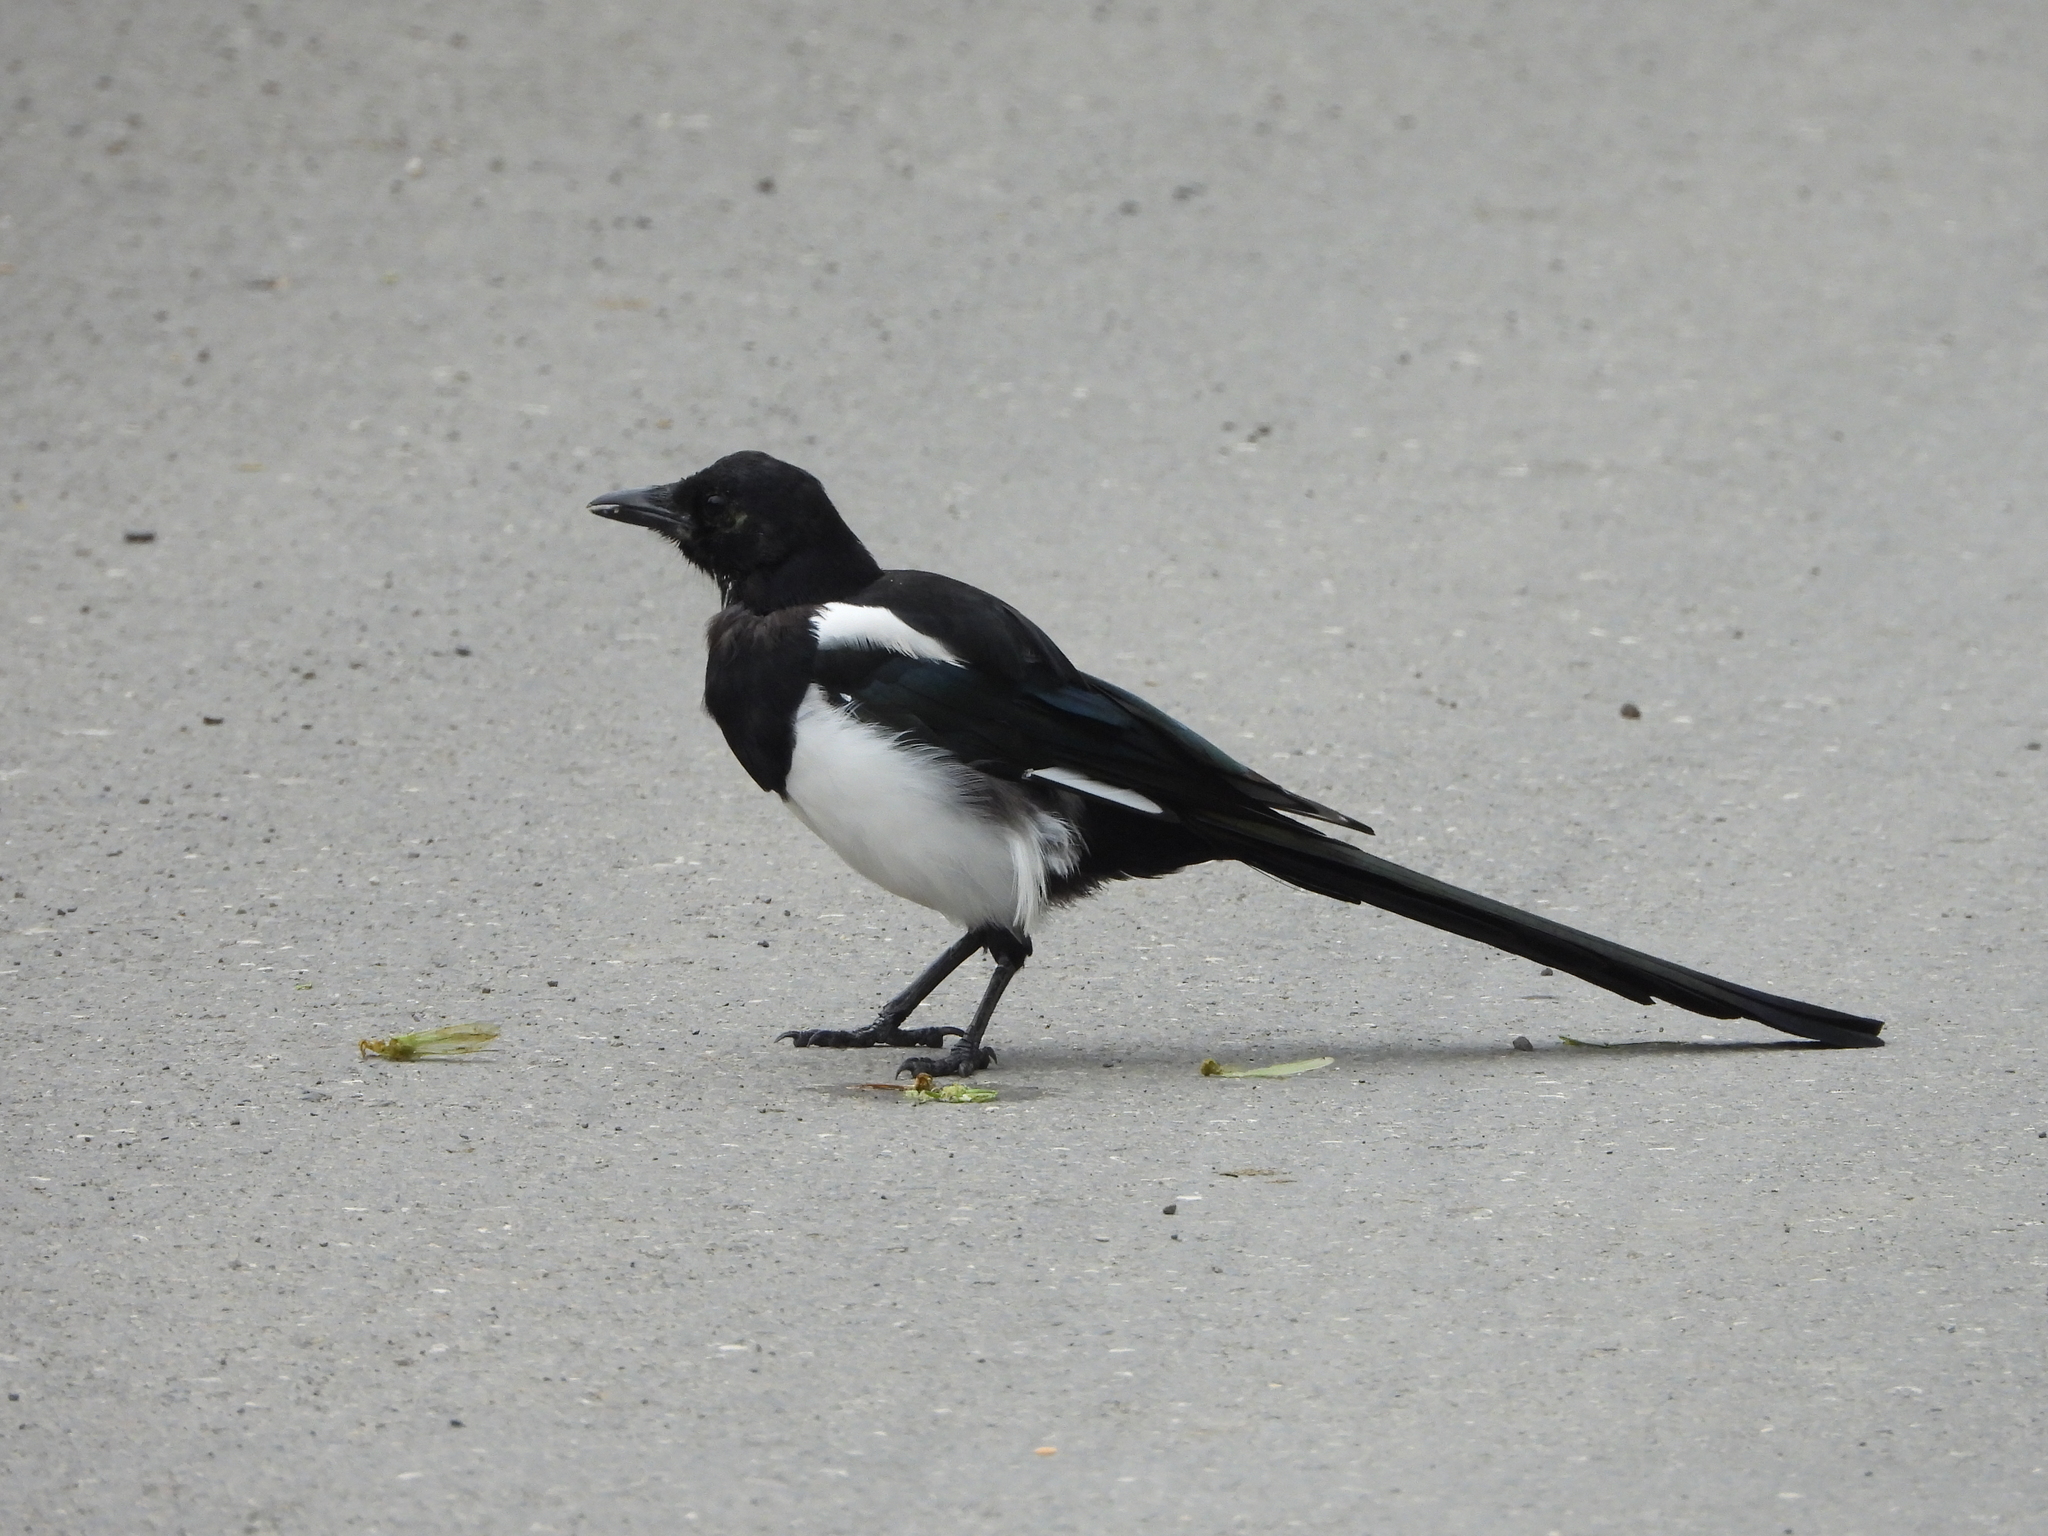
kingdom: Animalia
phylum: Chordata
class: Aves
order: Passeriformes
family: Corvidae
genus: Pica
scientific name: Pica pica
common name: Eurasian magpie
